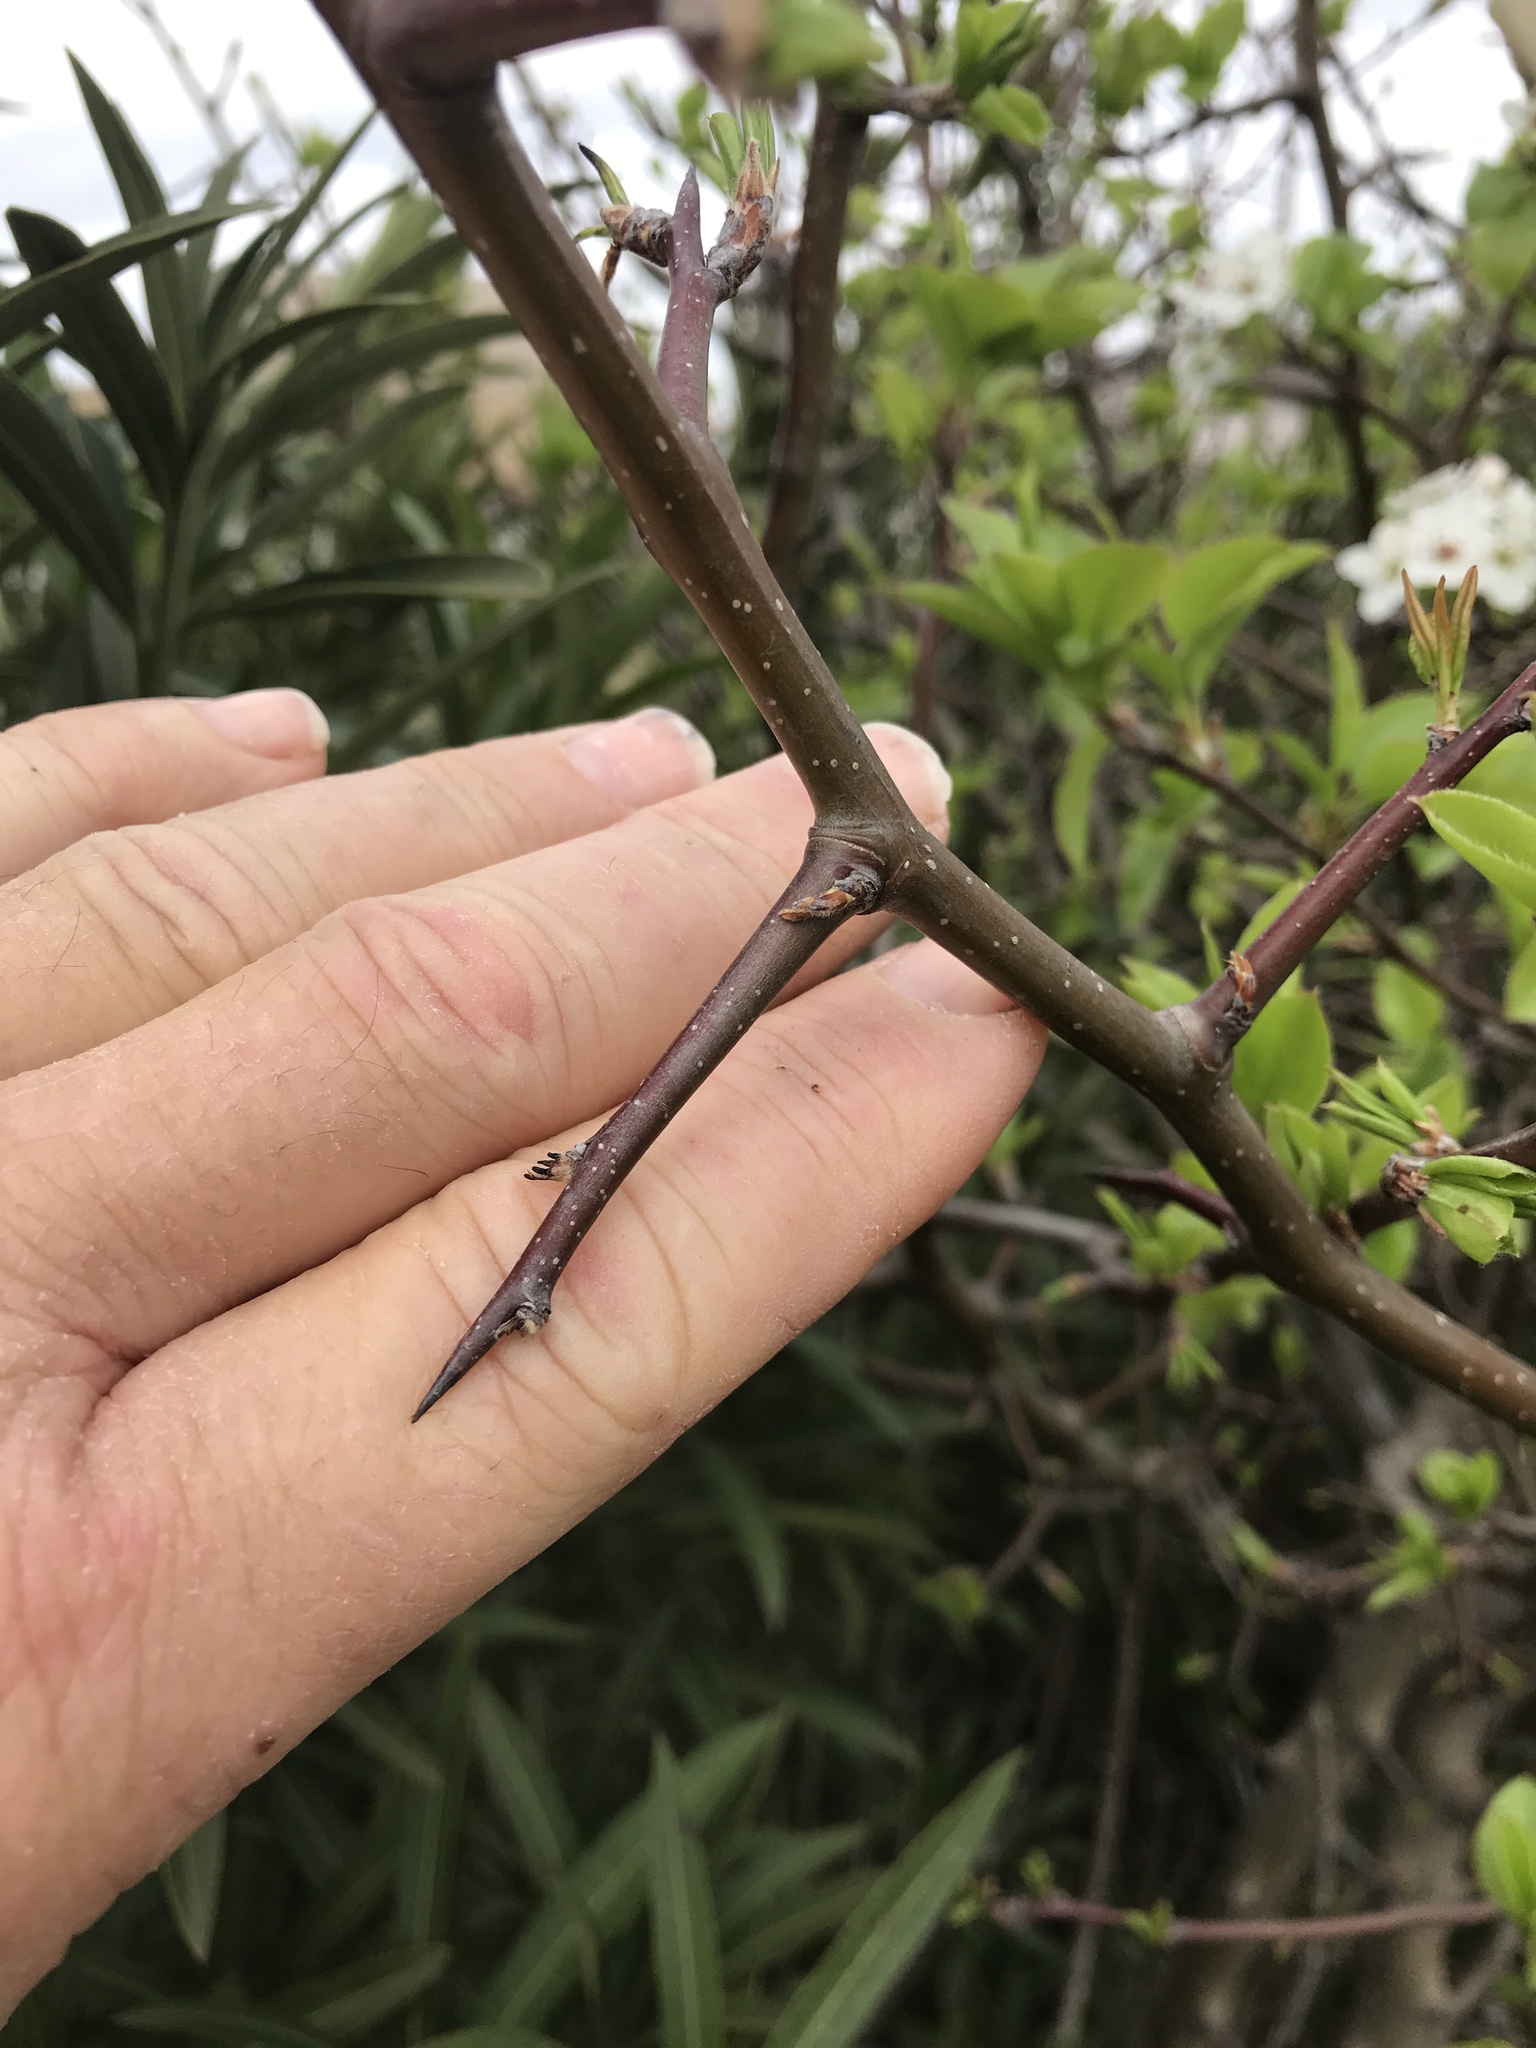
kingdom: Plantae
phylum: Tracheophyta
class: Magnoliopsida
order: Rosales
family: Rosaceae
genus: Pyrus
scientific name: Pyrus calleryana
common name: Callery pear
